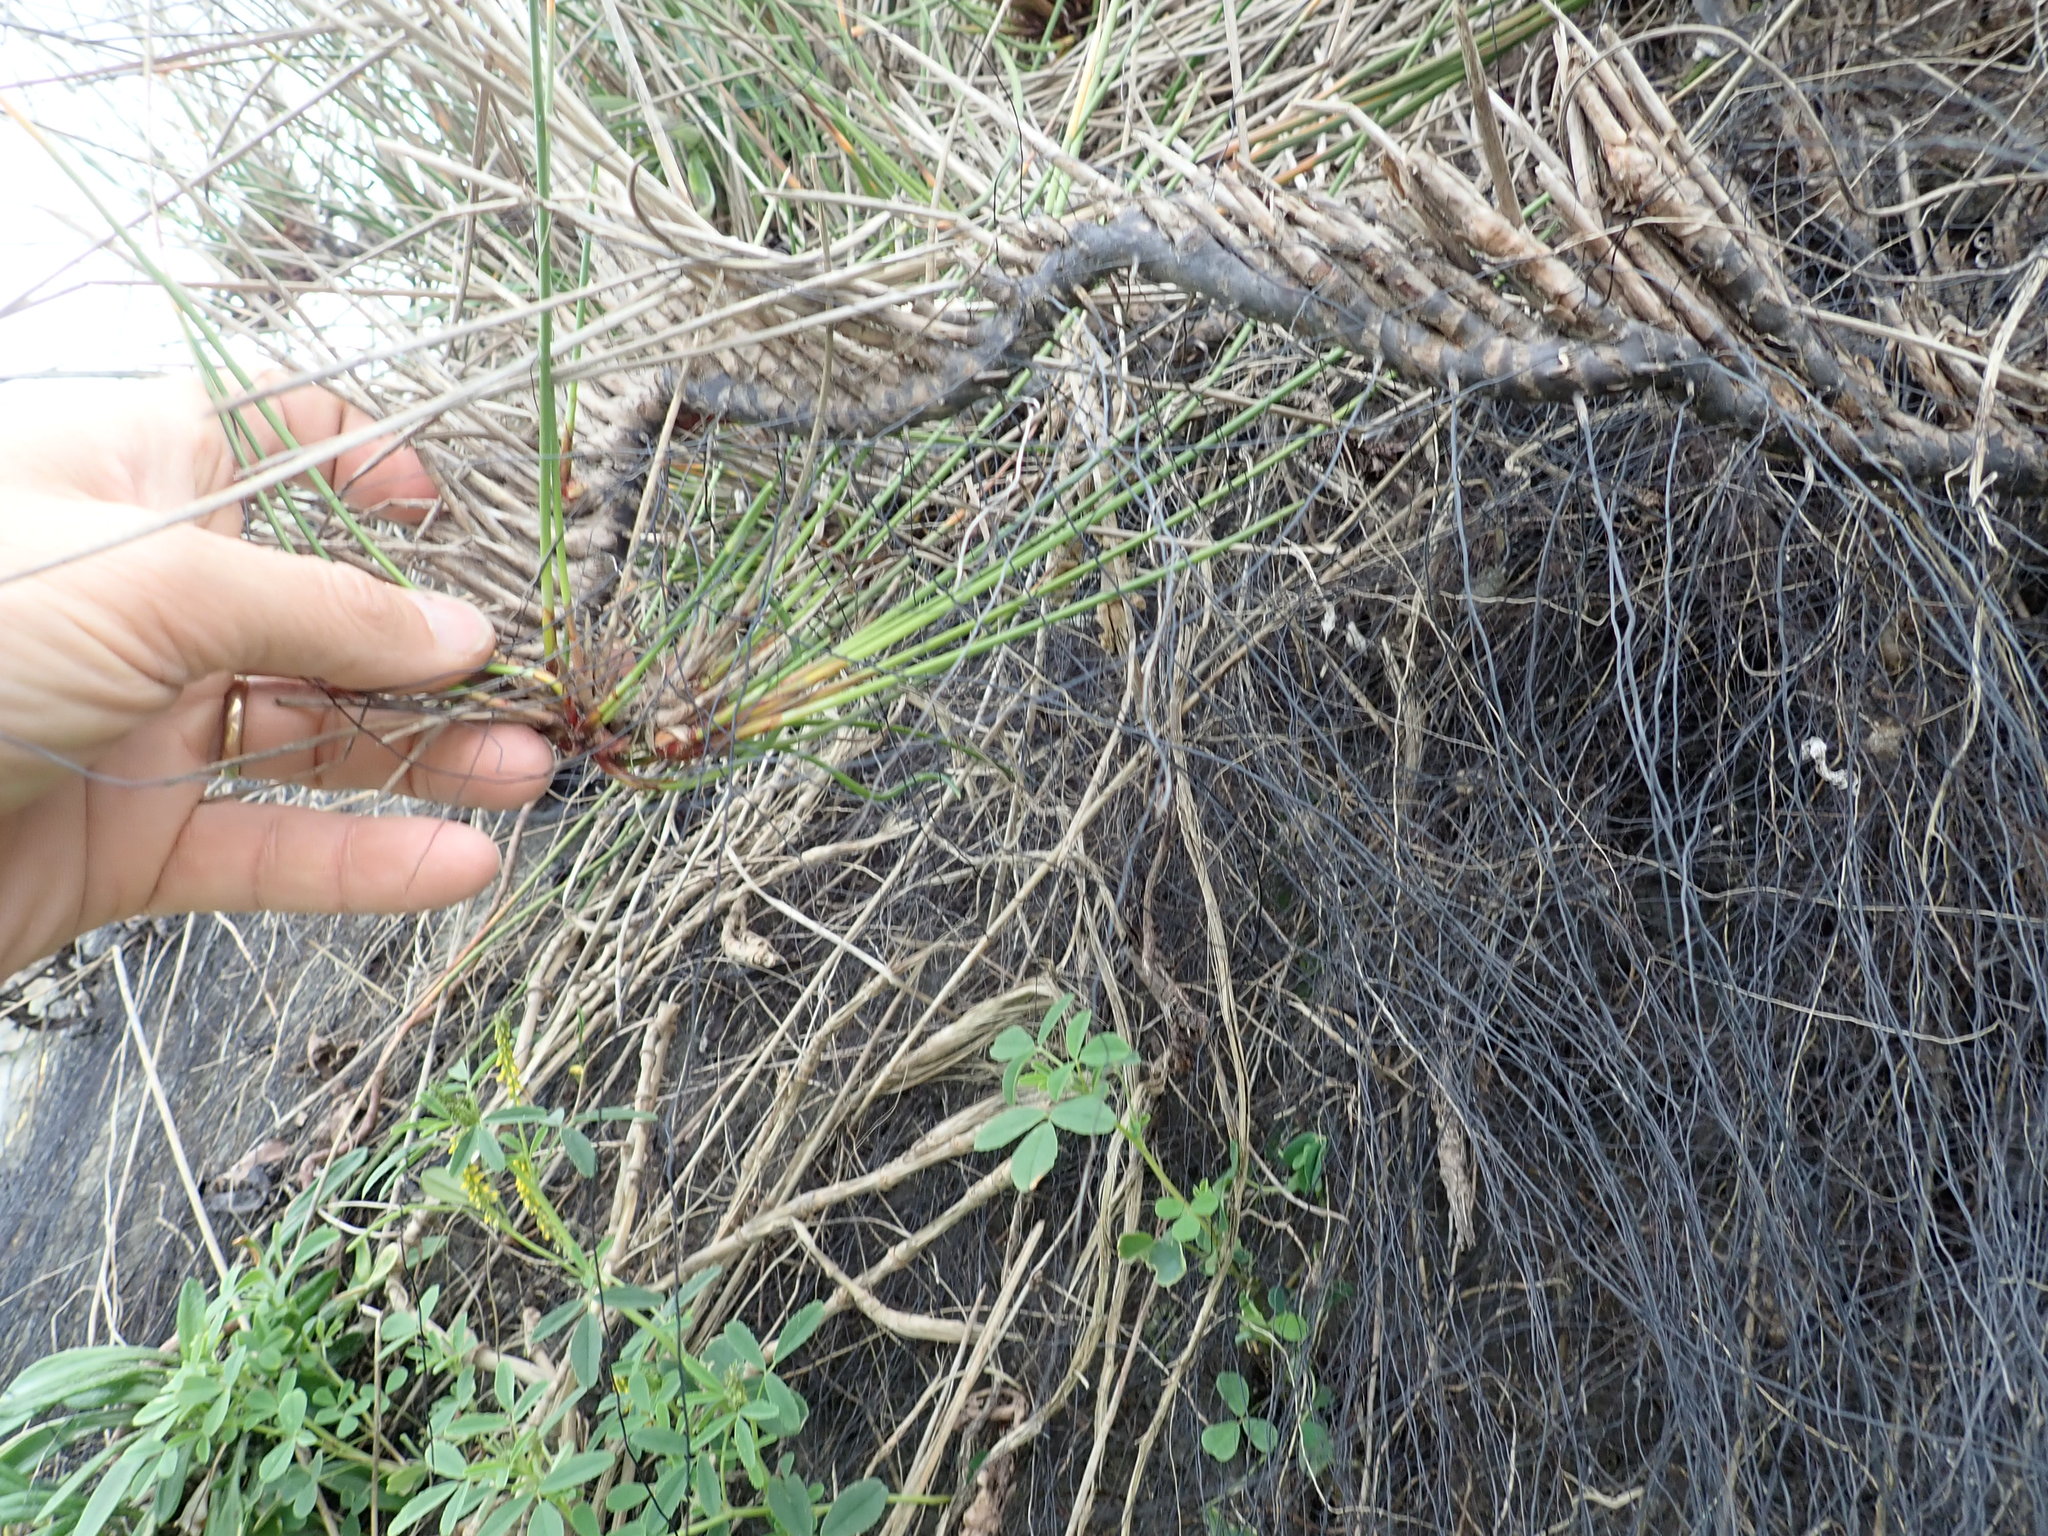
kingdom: Plantae
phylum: Tracheophyta
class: Liliopsida
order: Poales
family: Cyperaceae
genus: Ficinia
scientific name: Ficinia nodosa
